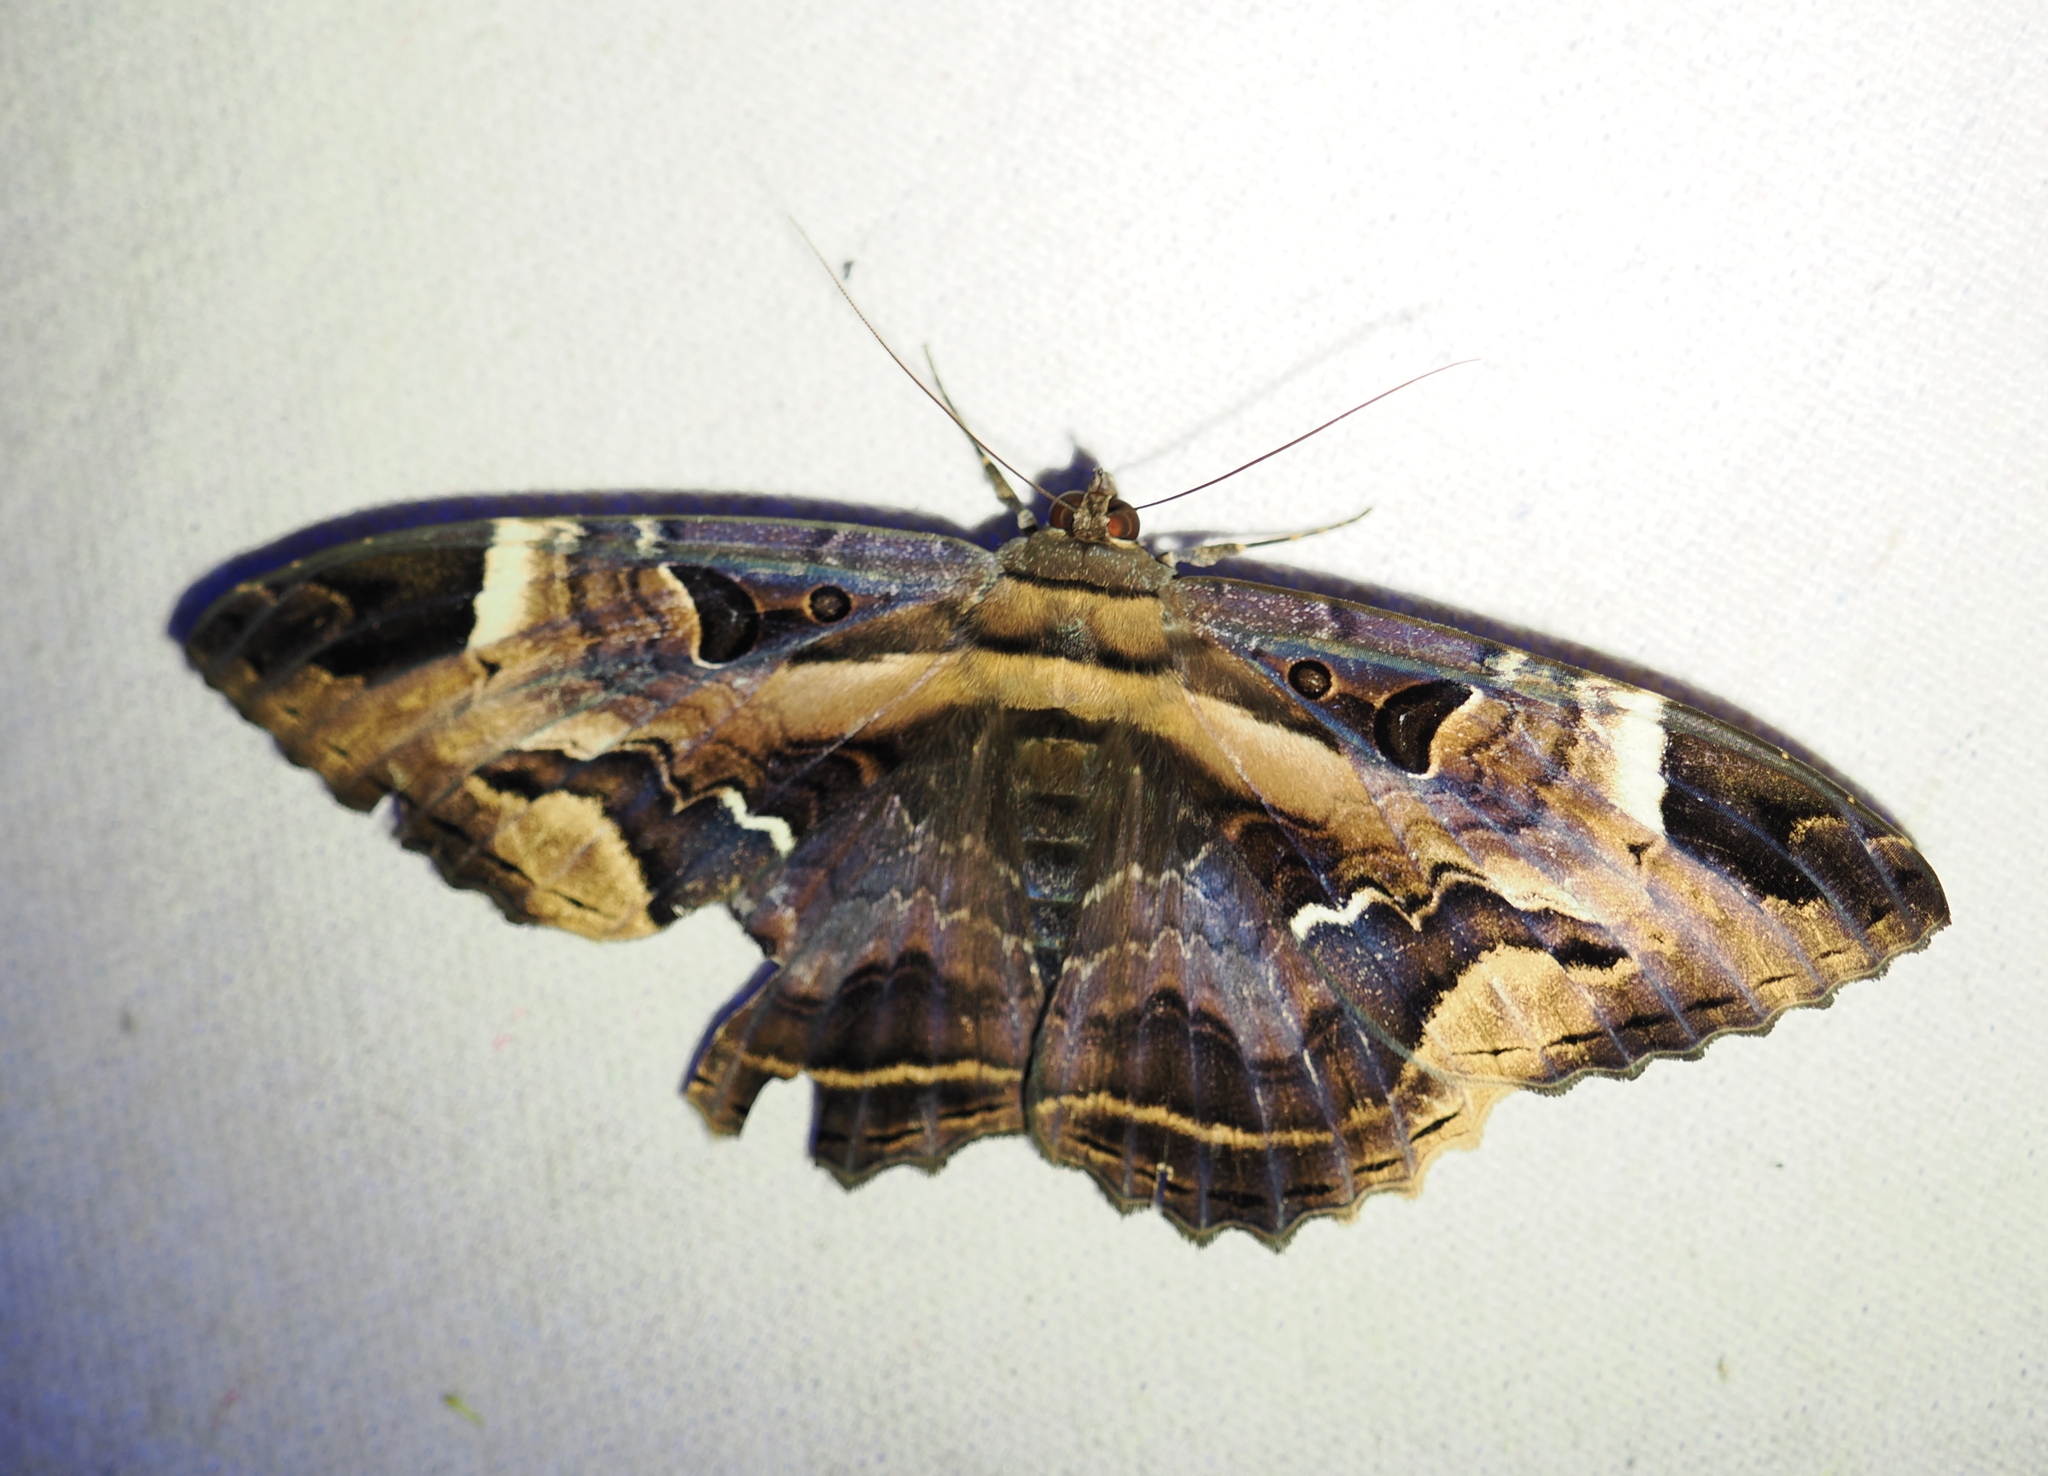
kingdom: Animalia
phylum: Arthropoda
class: Insecta
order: Lepidoptera
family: Erebidae
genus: Feigeria
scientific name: Feigeria herilia
